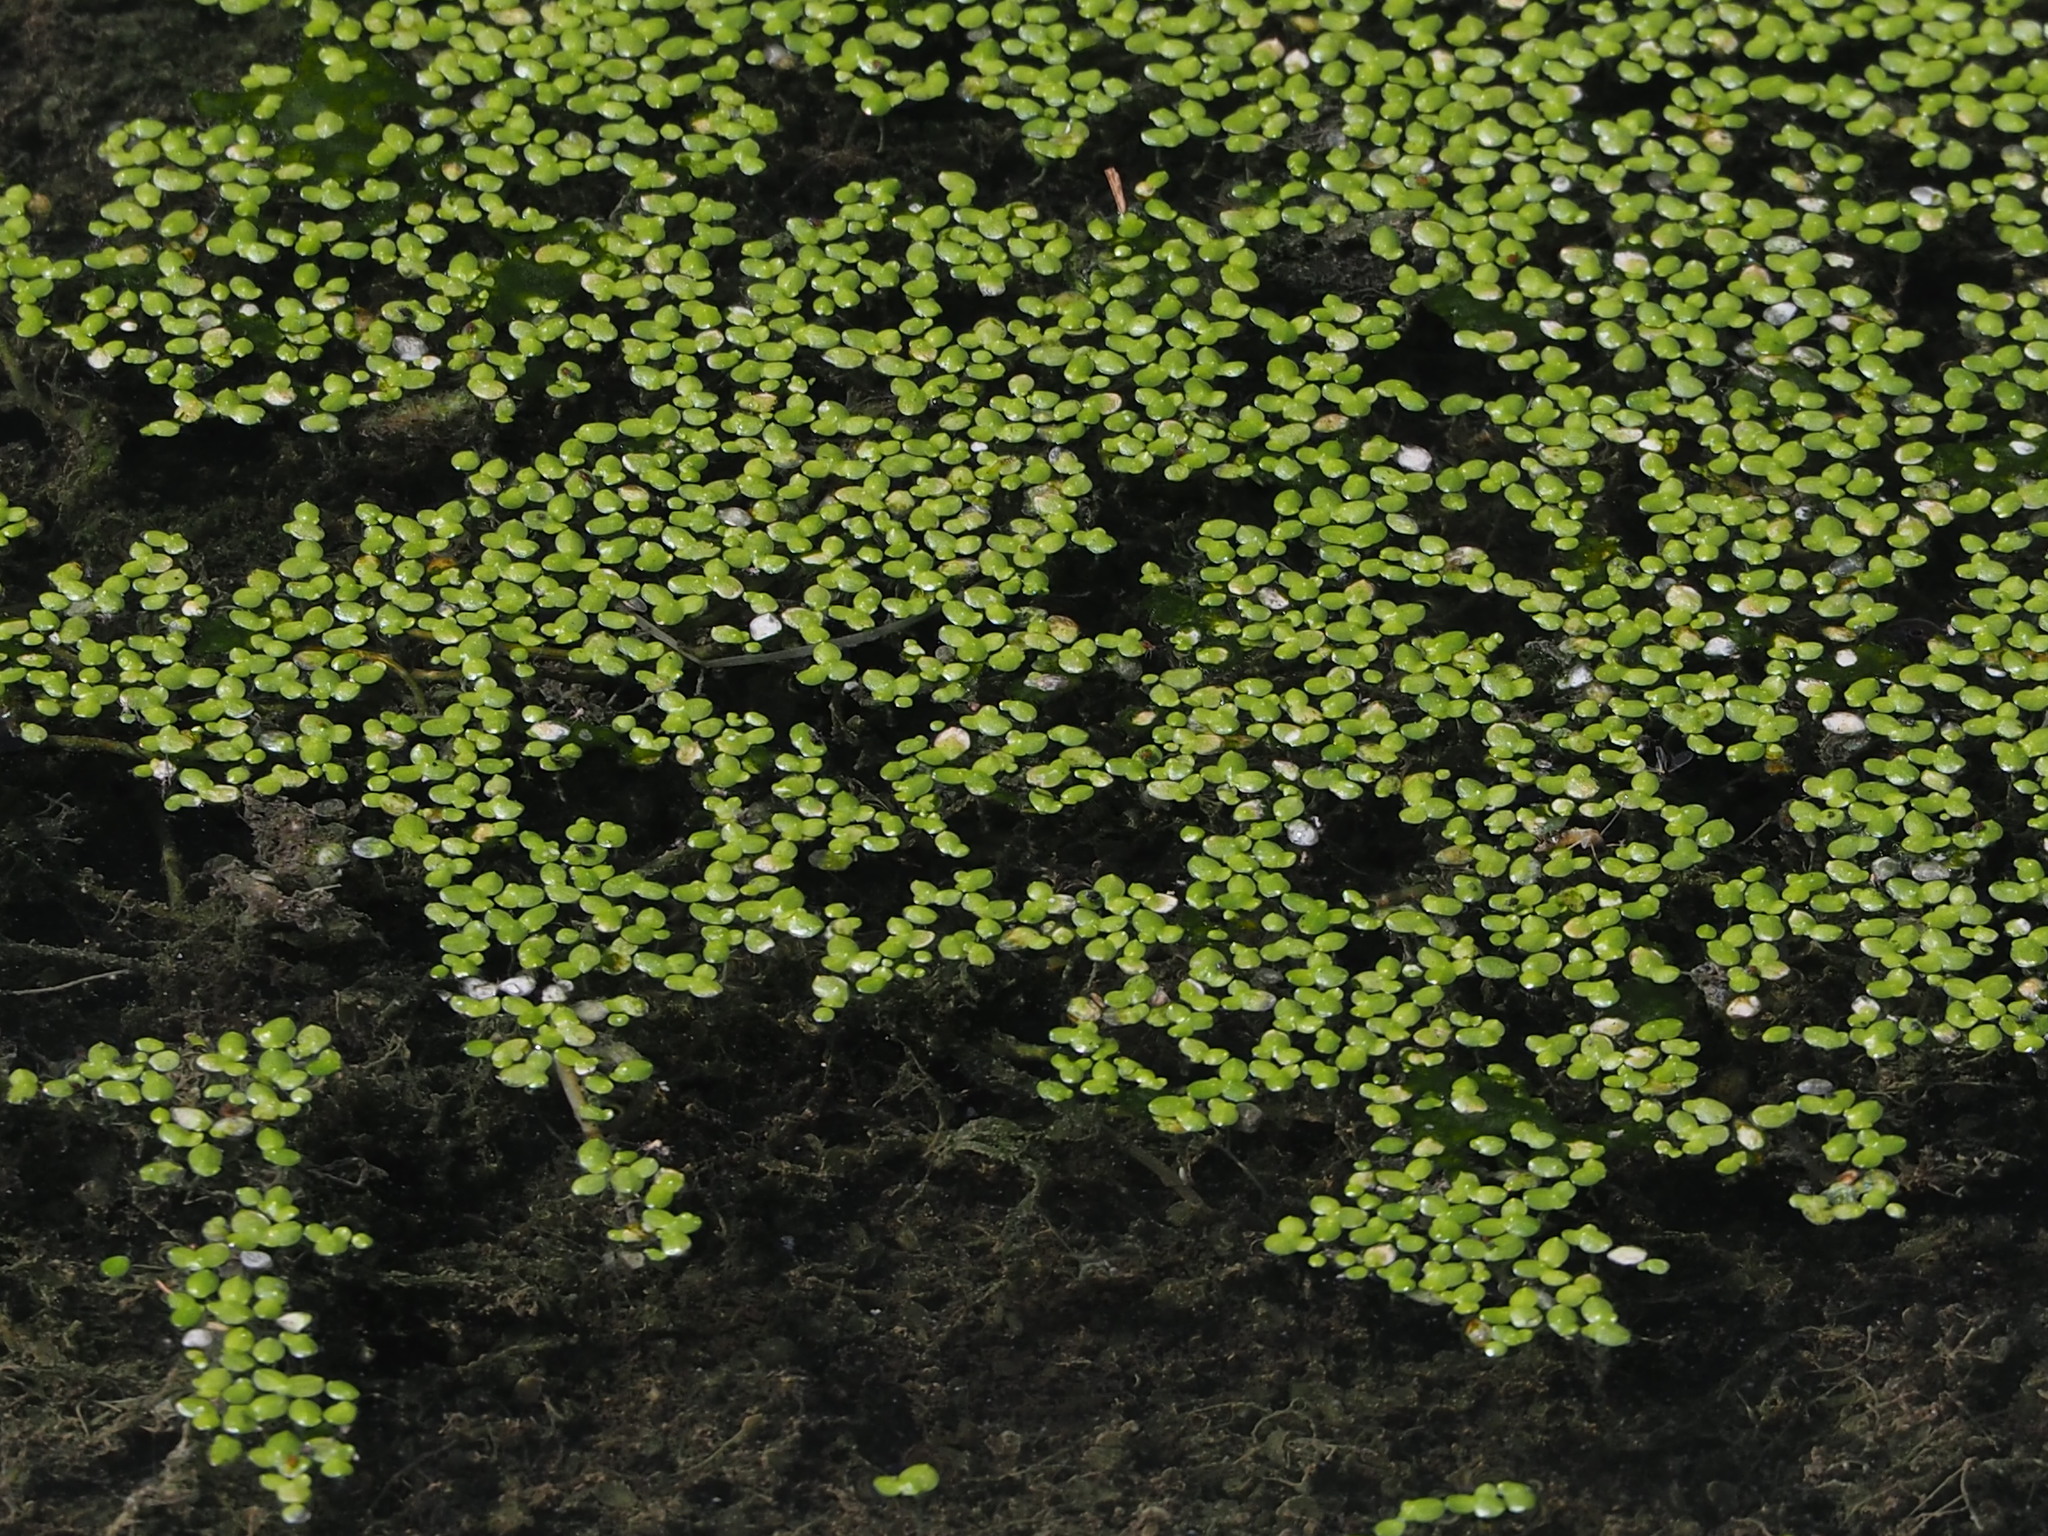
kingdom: Plantae
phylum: Tracheophyta
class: Liliopsida
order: Alismatales
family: Araceae
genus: Lemna
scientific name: Lemna aequinoctialis
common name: Duckweed
